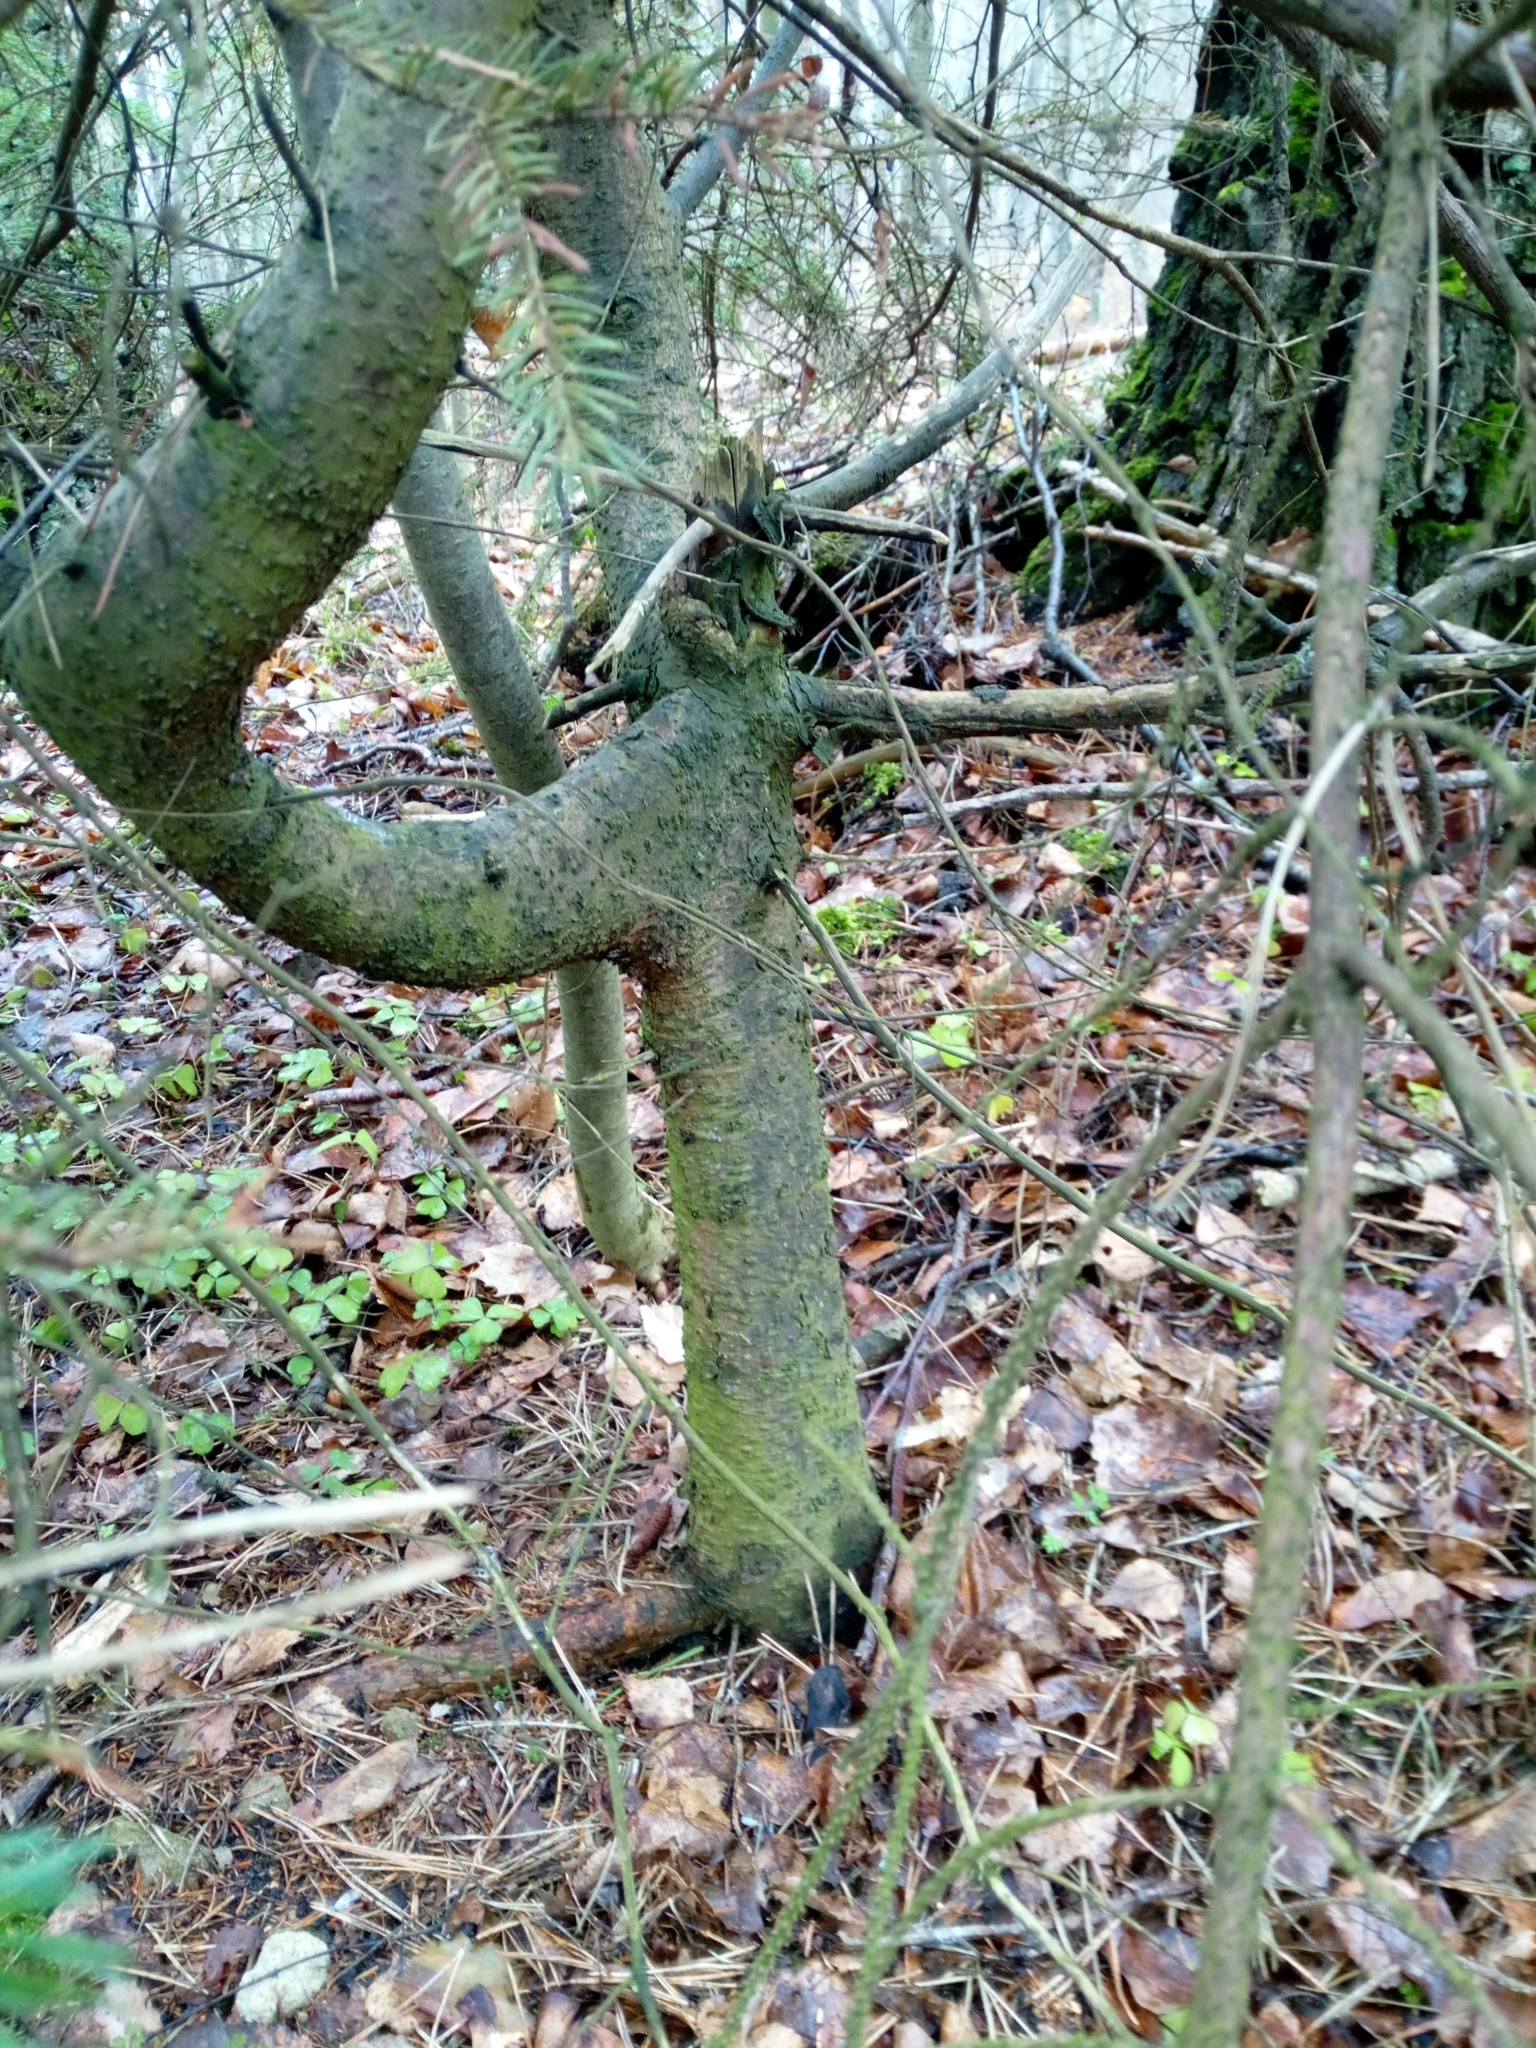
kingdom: Plantae
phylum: Tracheophyta
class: Pinopsida
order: Pinales
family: Pinaceae
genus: Picea
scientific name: Picea abies
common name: Norway spruce
